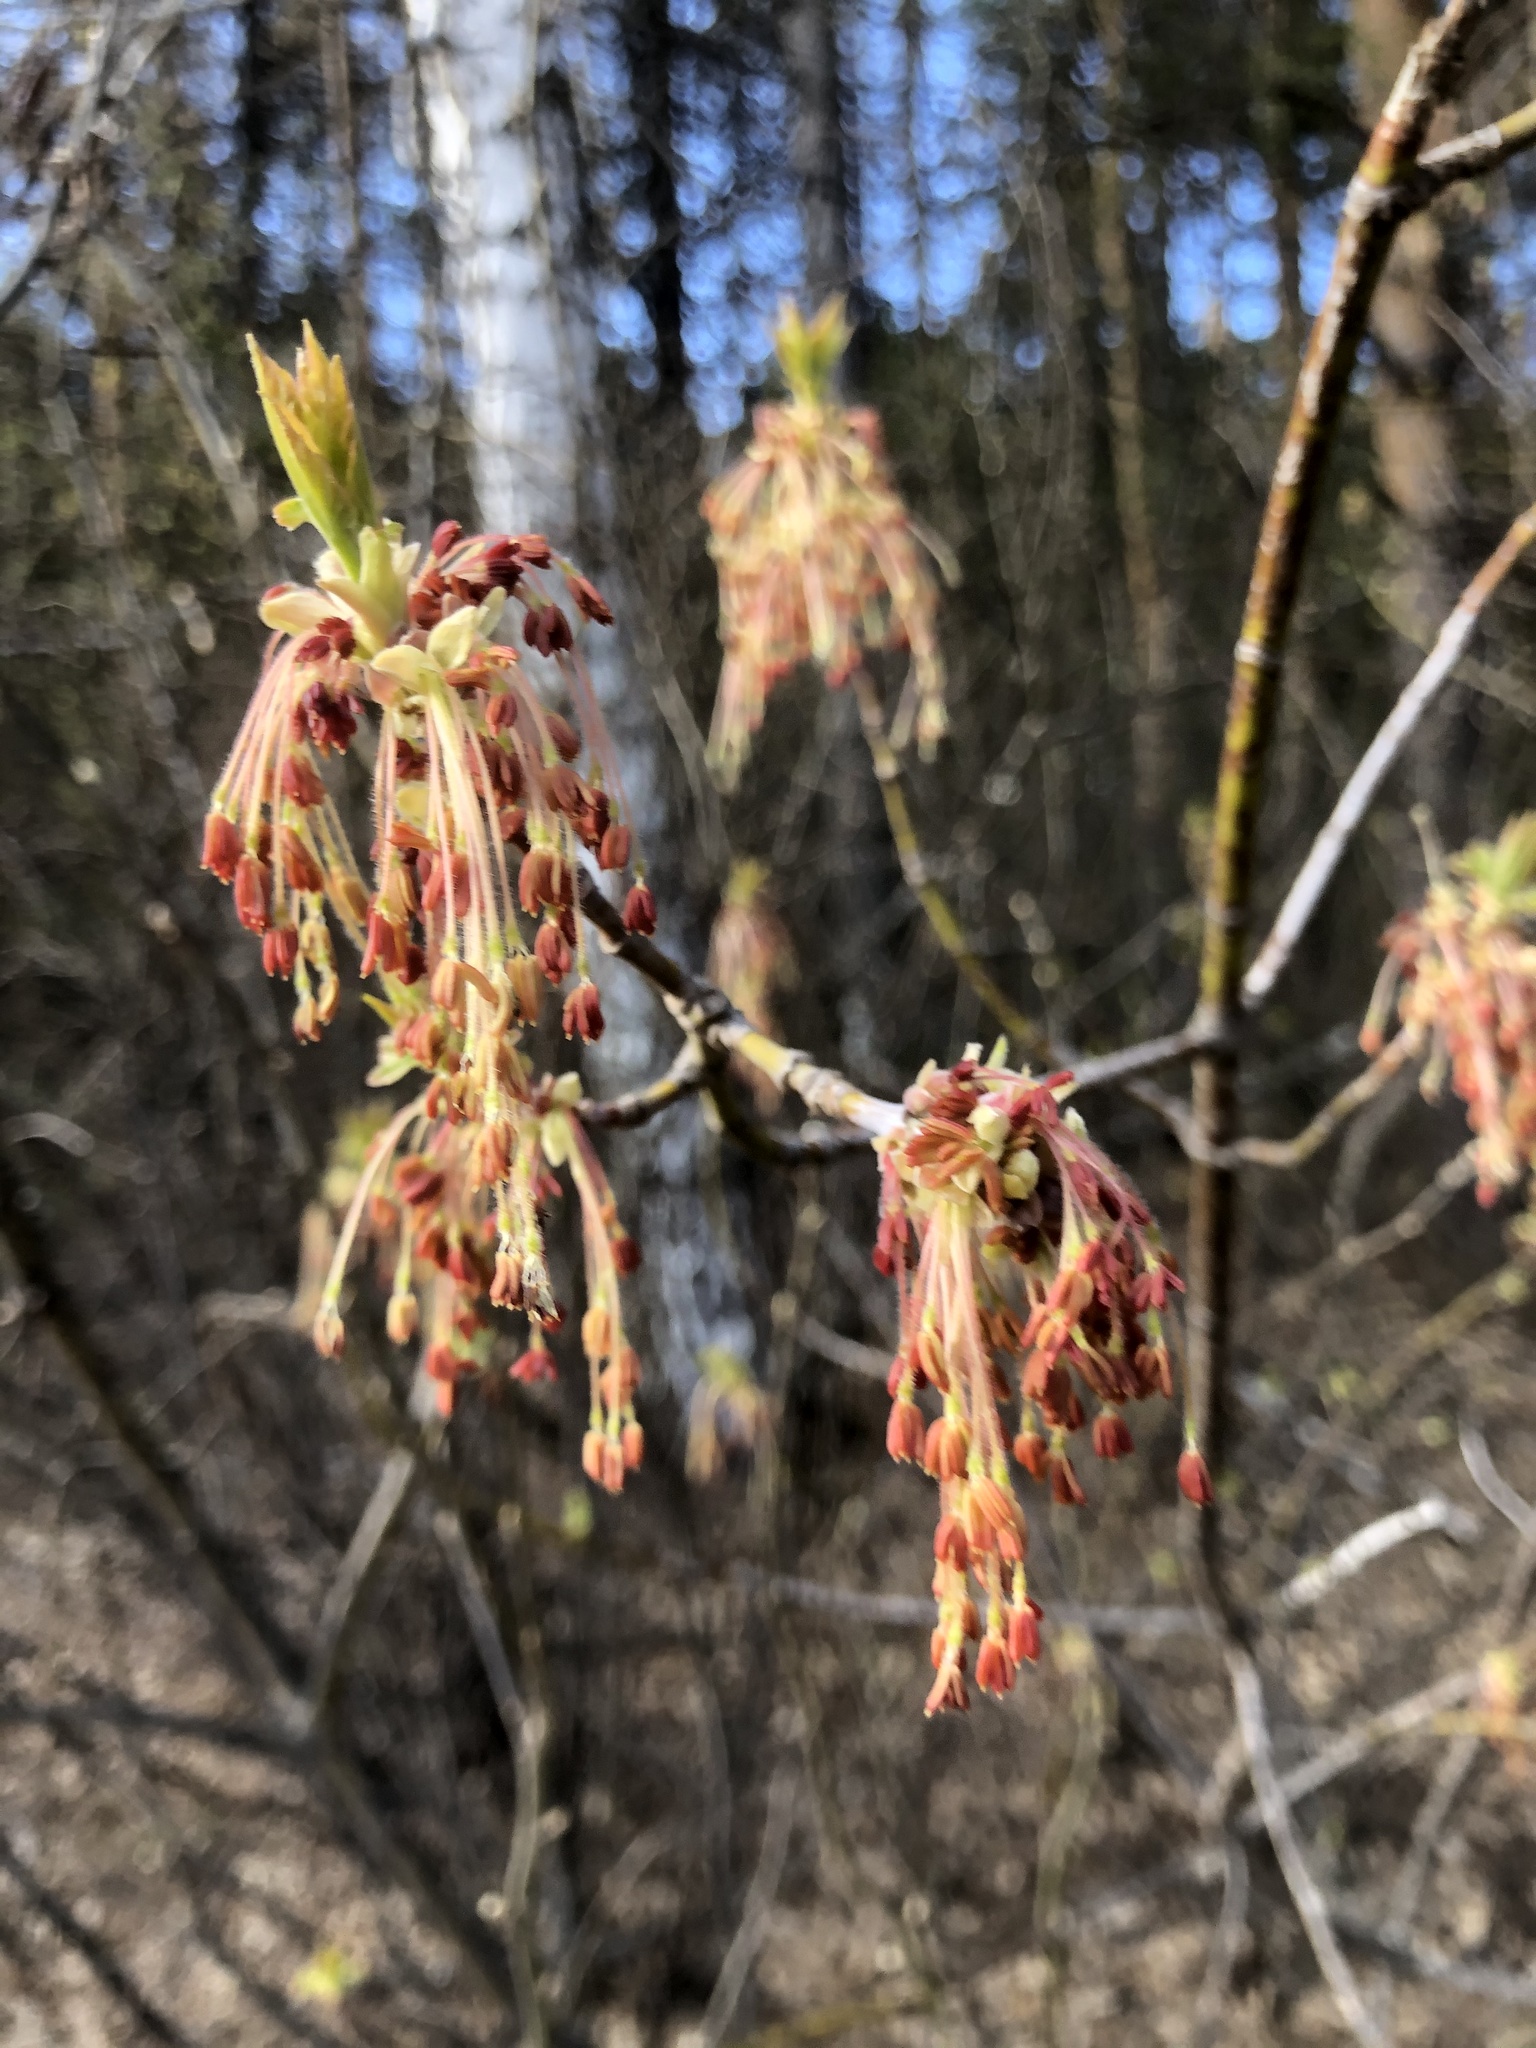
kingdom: Plantae
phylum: Tracheophyta
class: Magnoliopsida
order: Sapindales
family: Sapindaceae
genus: Acer
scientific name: Acer negundo
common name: Ashleaf maple
